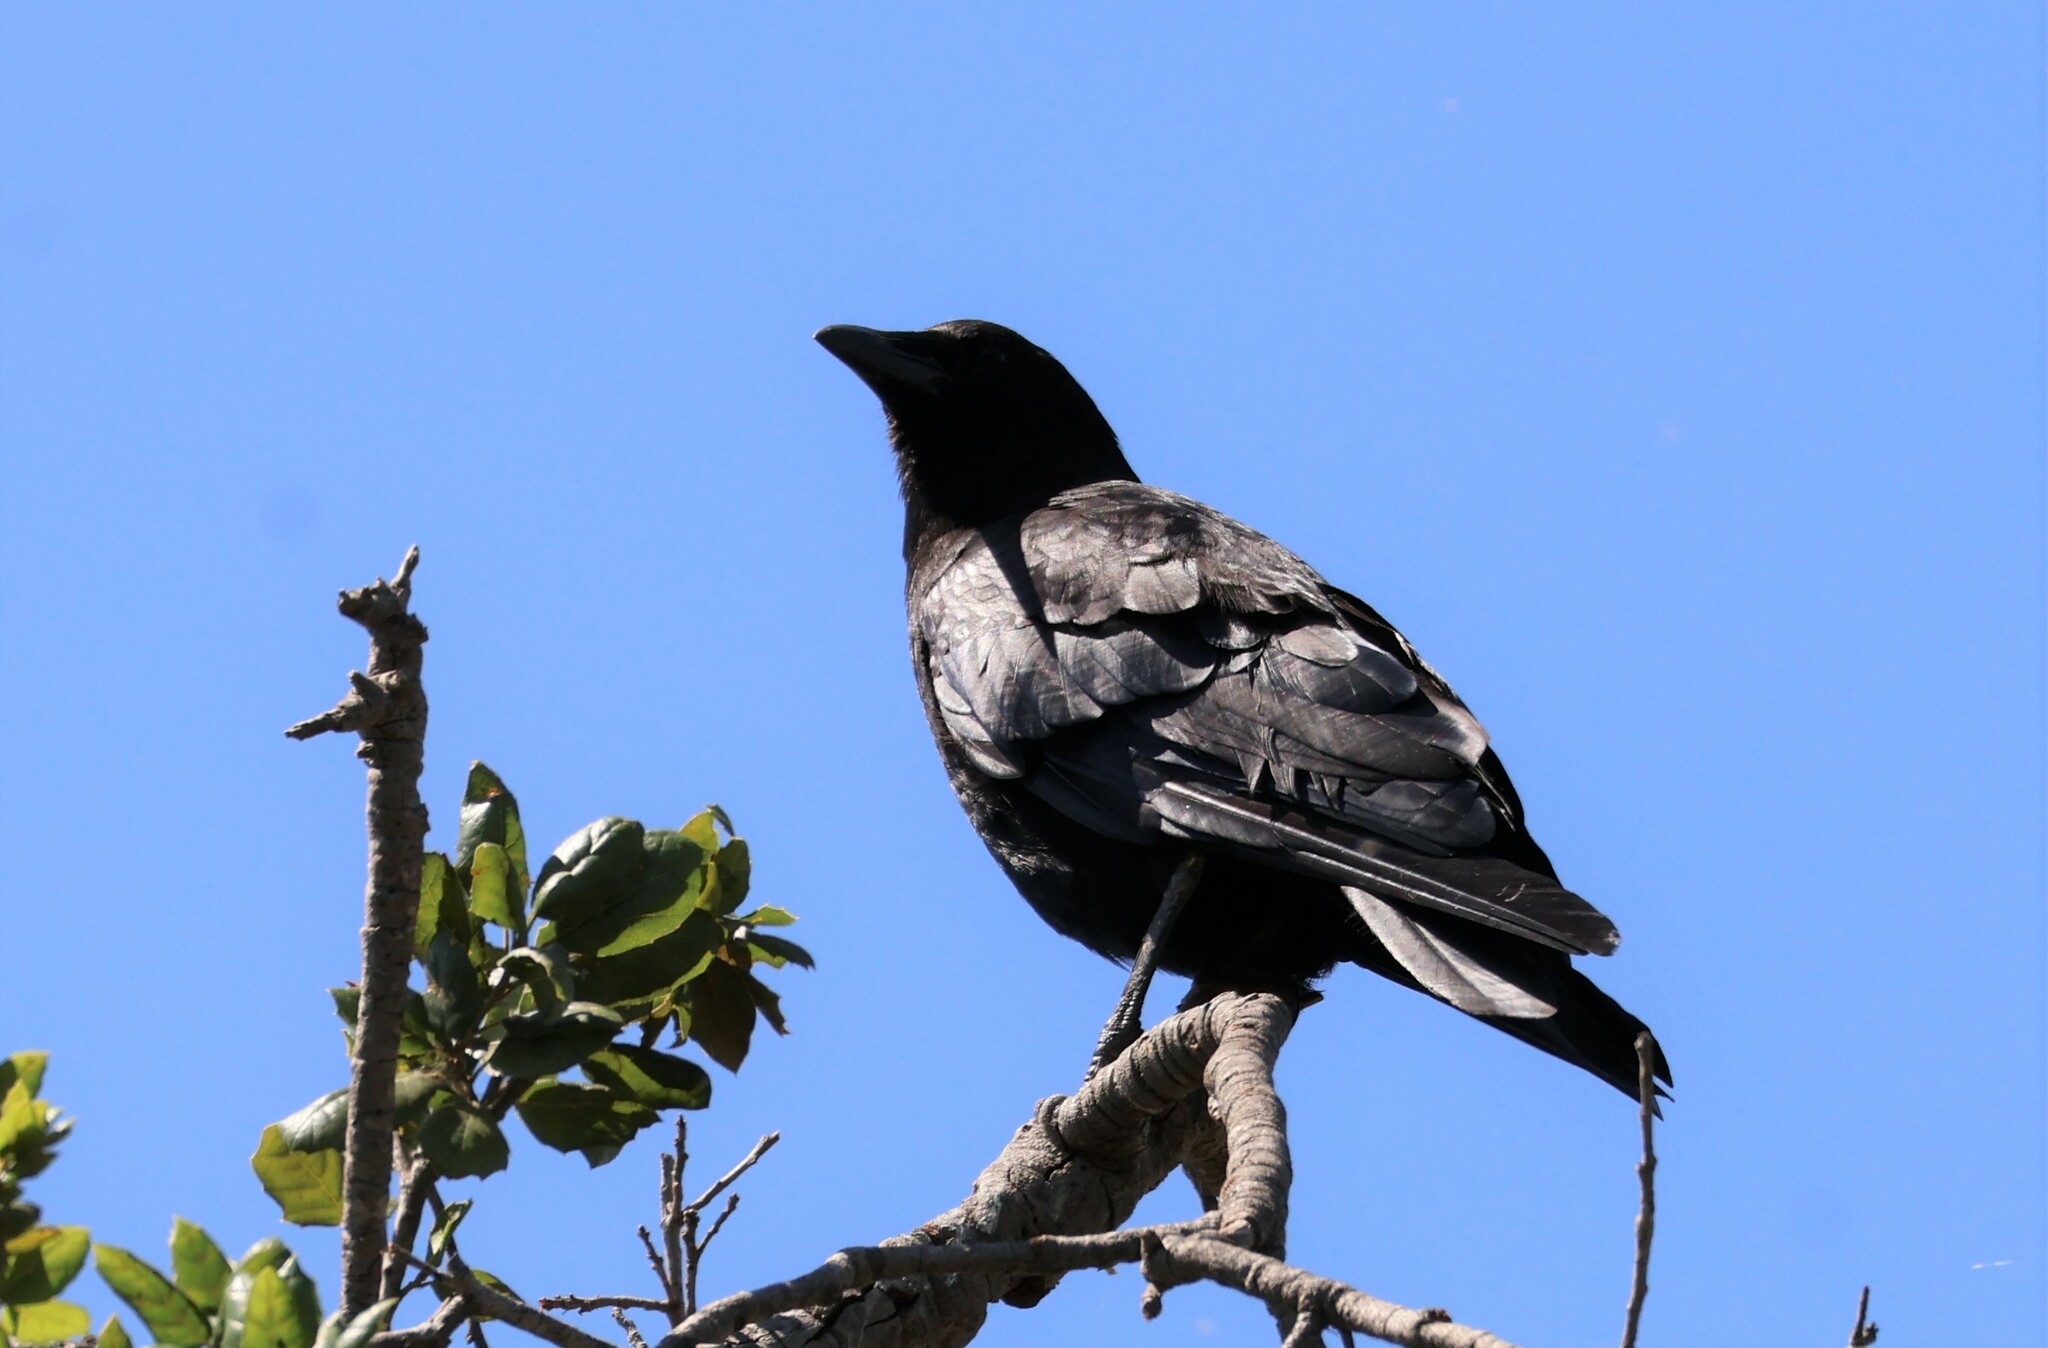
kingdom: Animalia
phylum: Chordata
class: Aves
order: Passeriformes
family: Corvidae
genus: Corvus
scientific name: Corvus brachyrhynchos
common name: American crow
